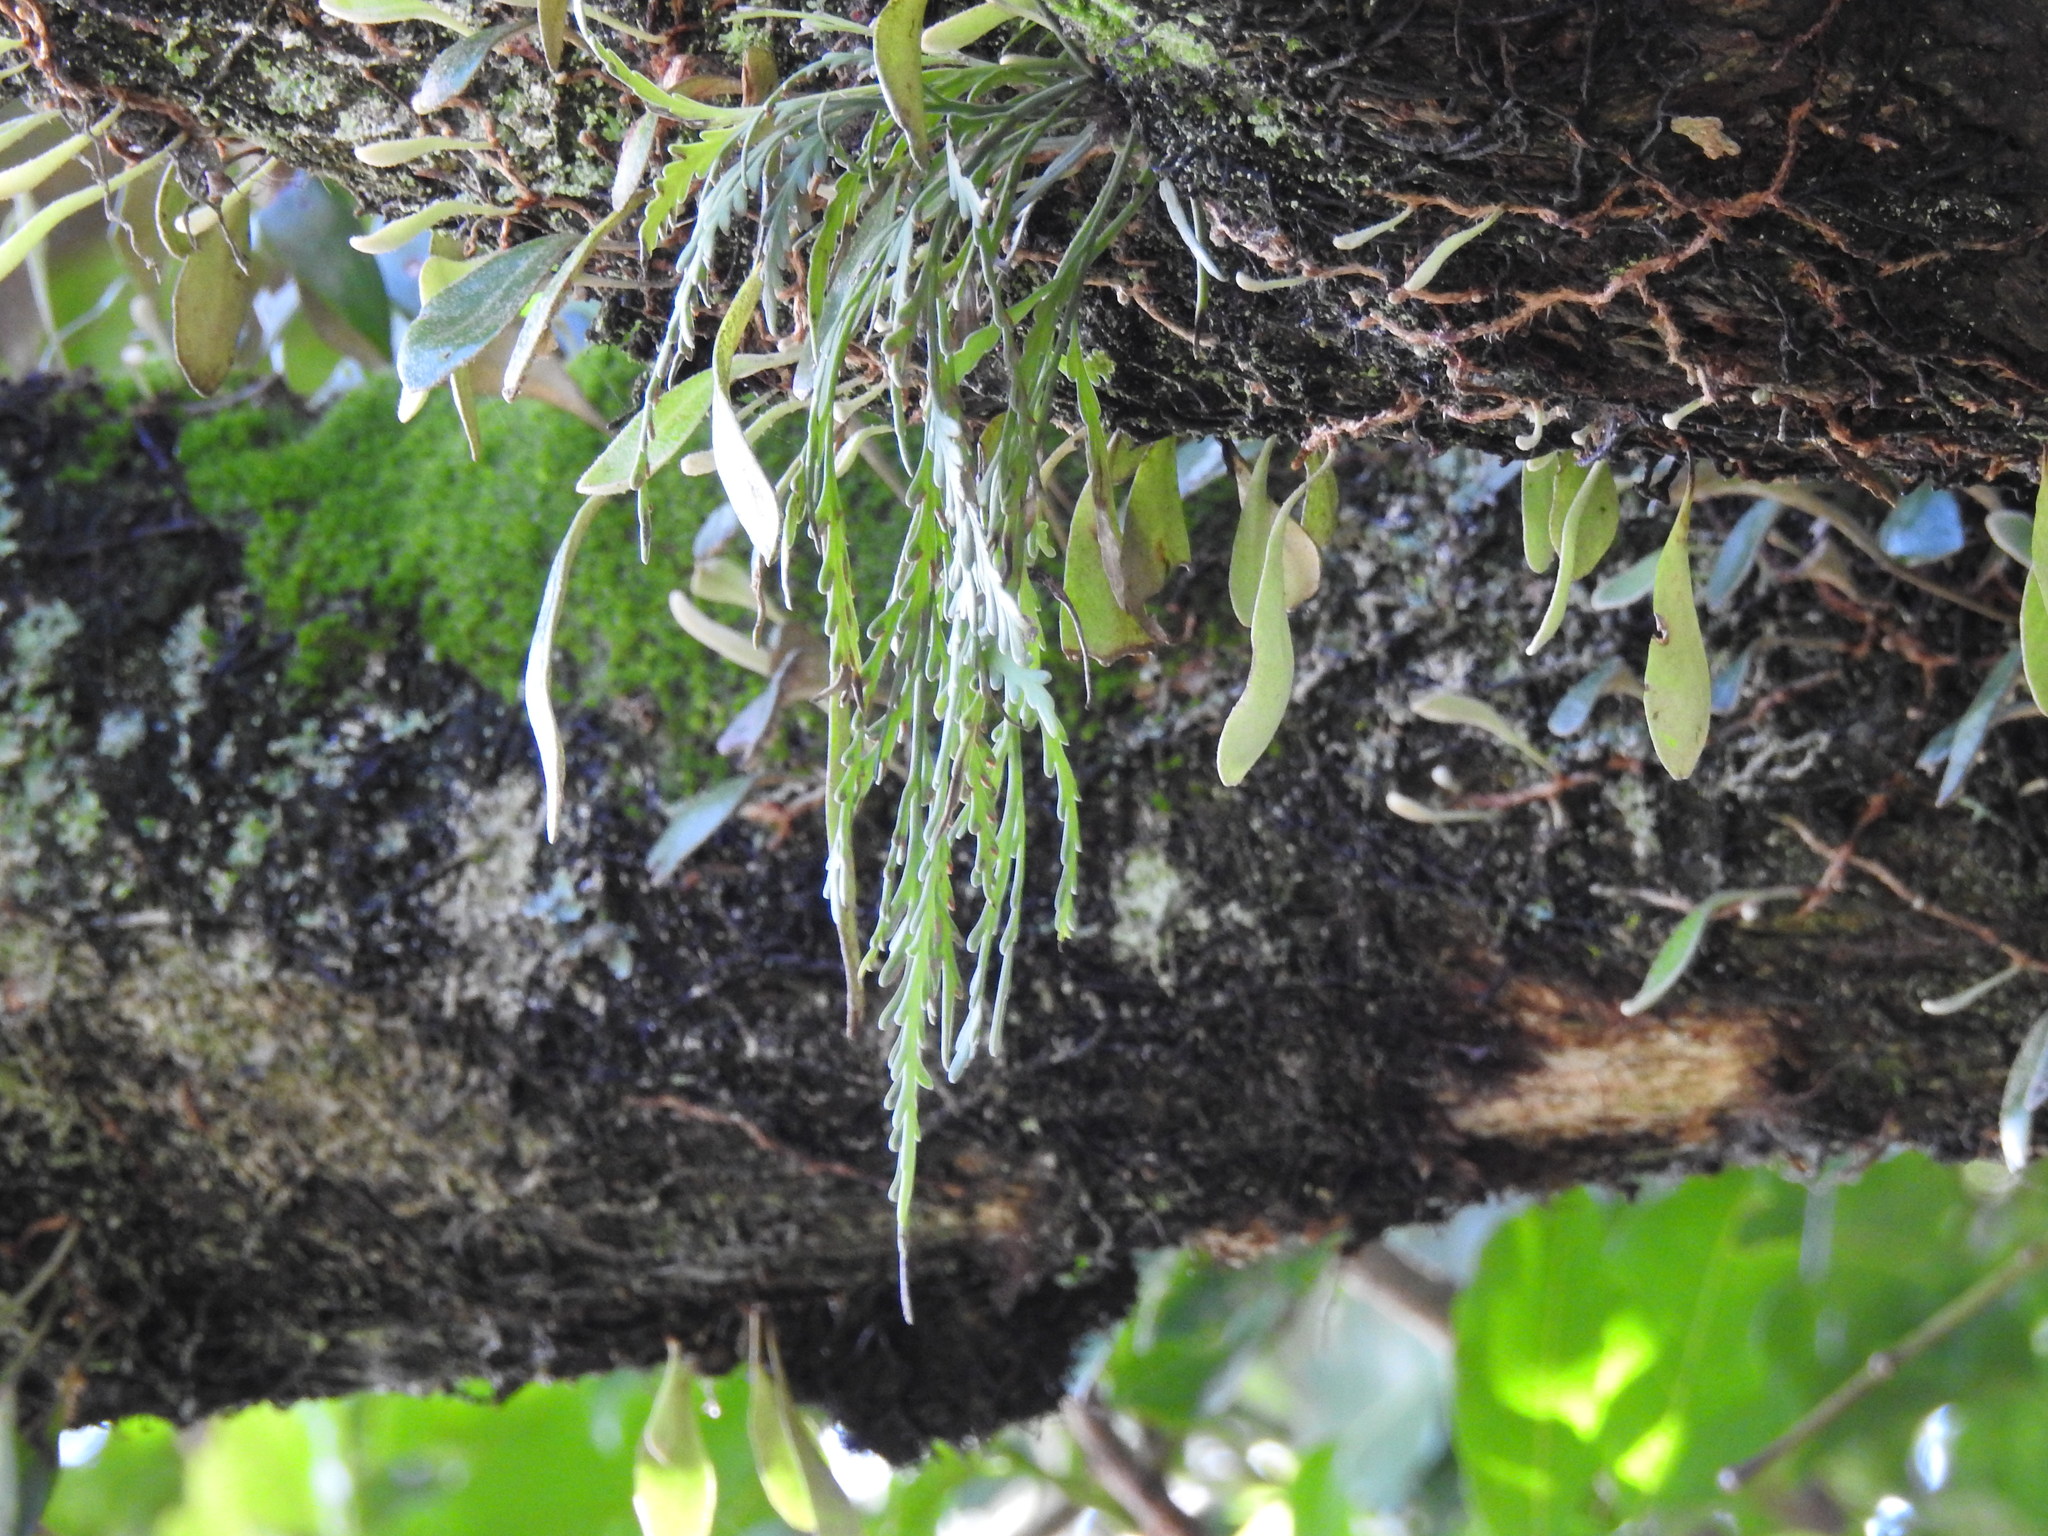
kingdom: Plantae
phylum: Tracheophyta
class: Polypodiopsida
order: Polypodiales
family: Aspleniaceae
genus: Asplenium
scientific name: Asplenium flaccidum
